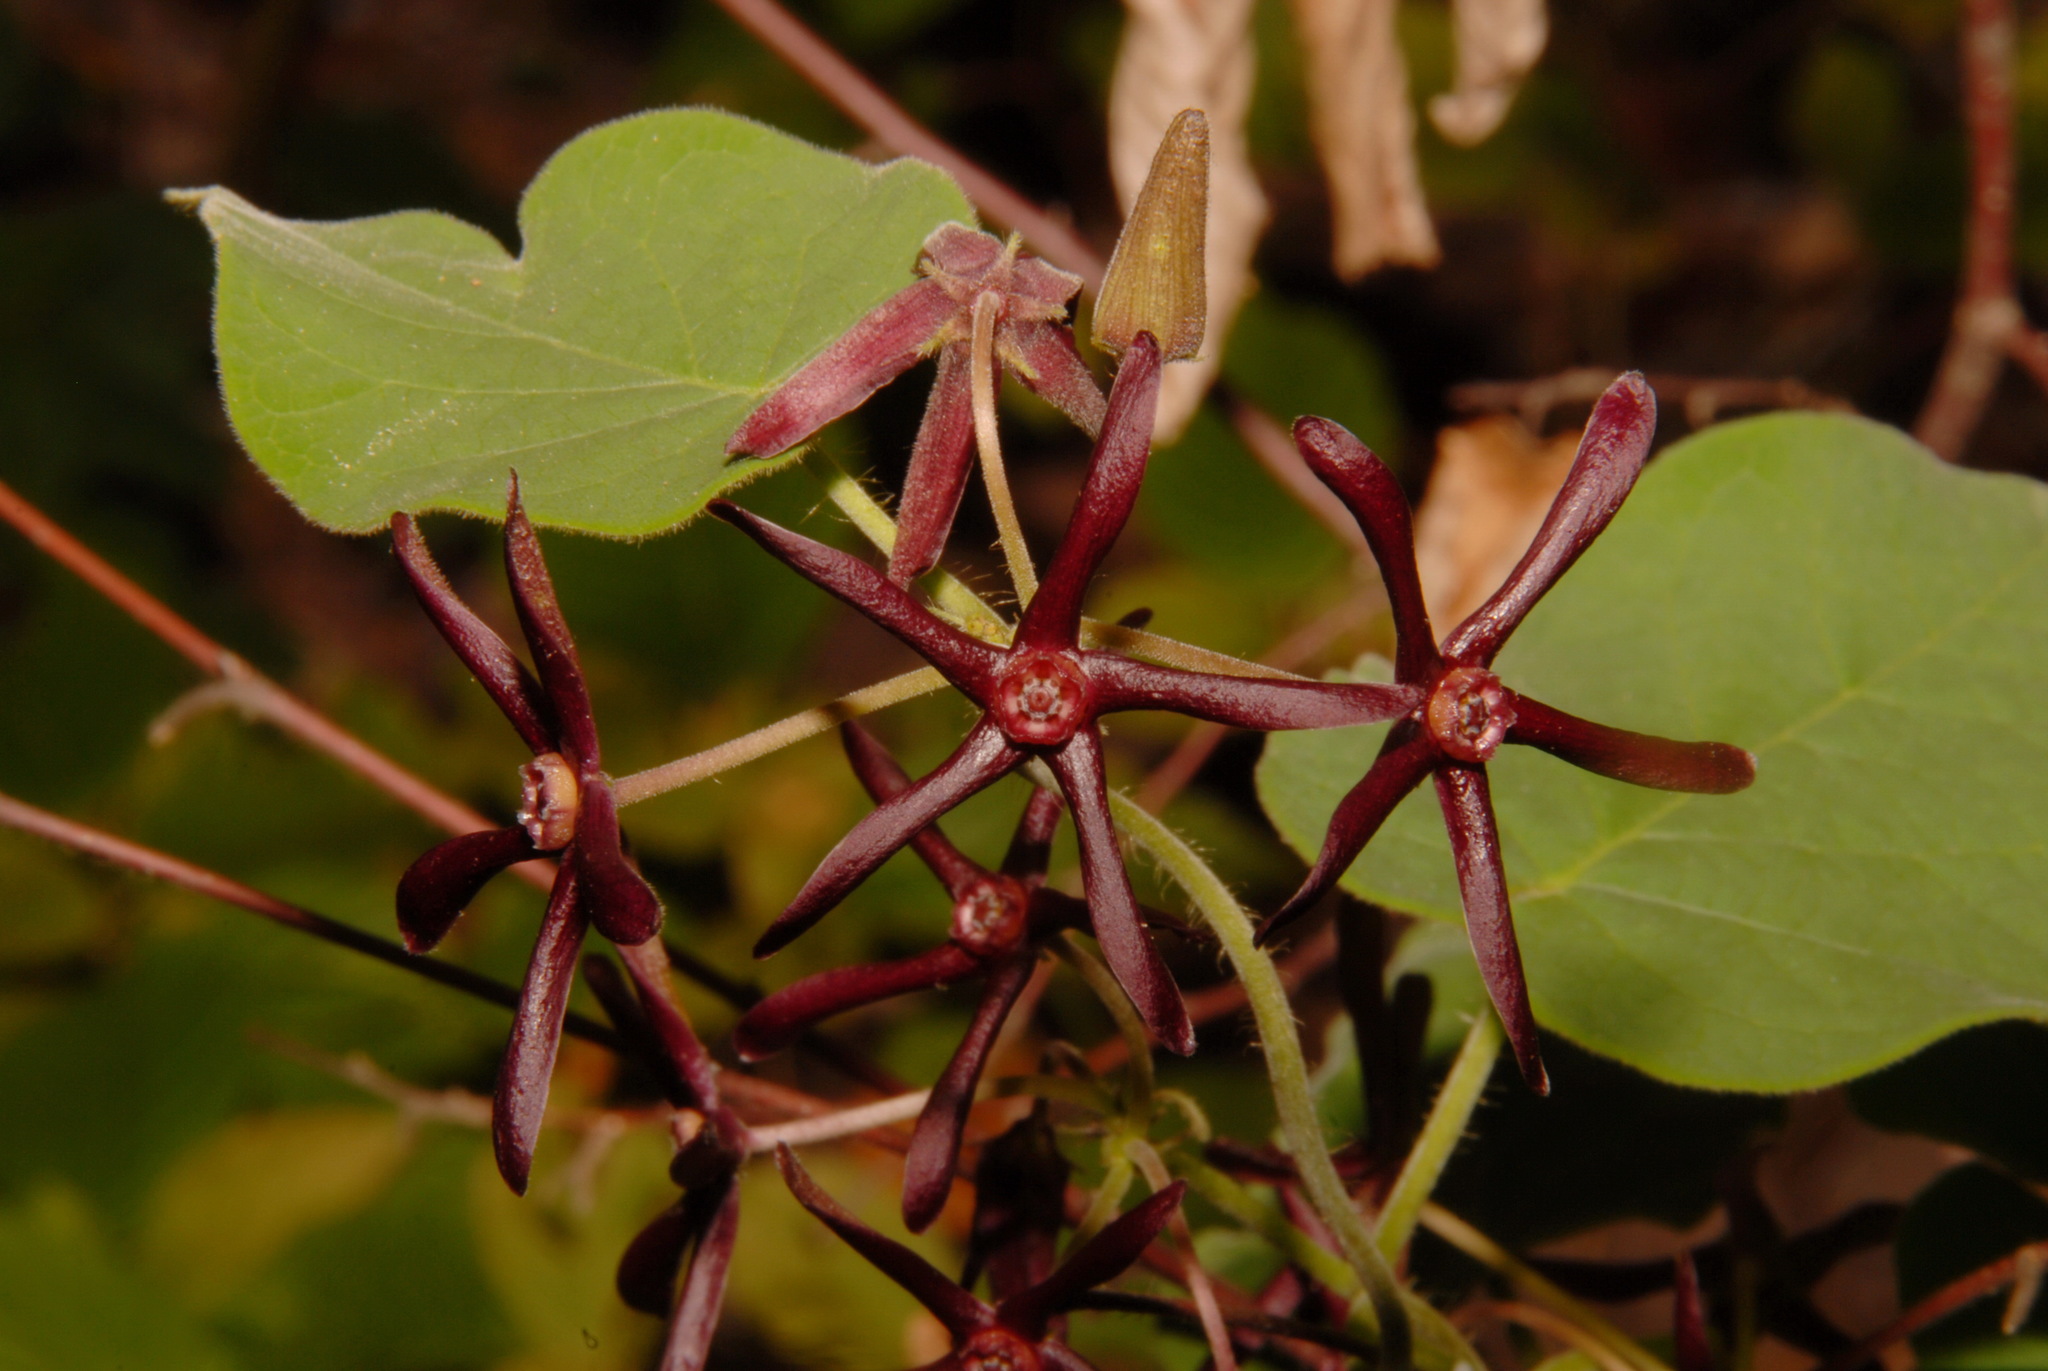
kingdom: Plantae
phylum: Tracheophyta
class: Magnoliopsida
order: Gentianales
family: Apocynaceae
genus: Matelea
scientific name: Matelea obliqua
